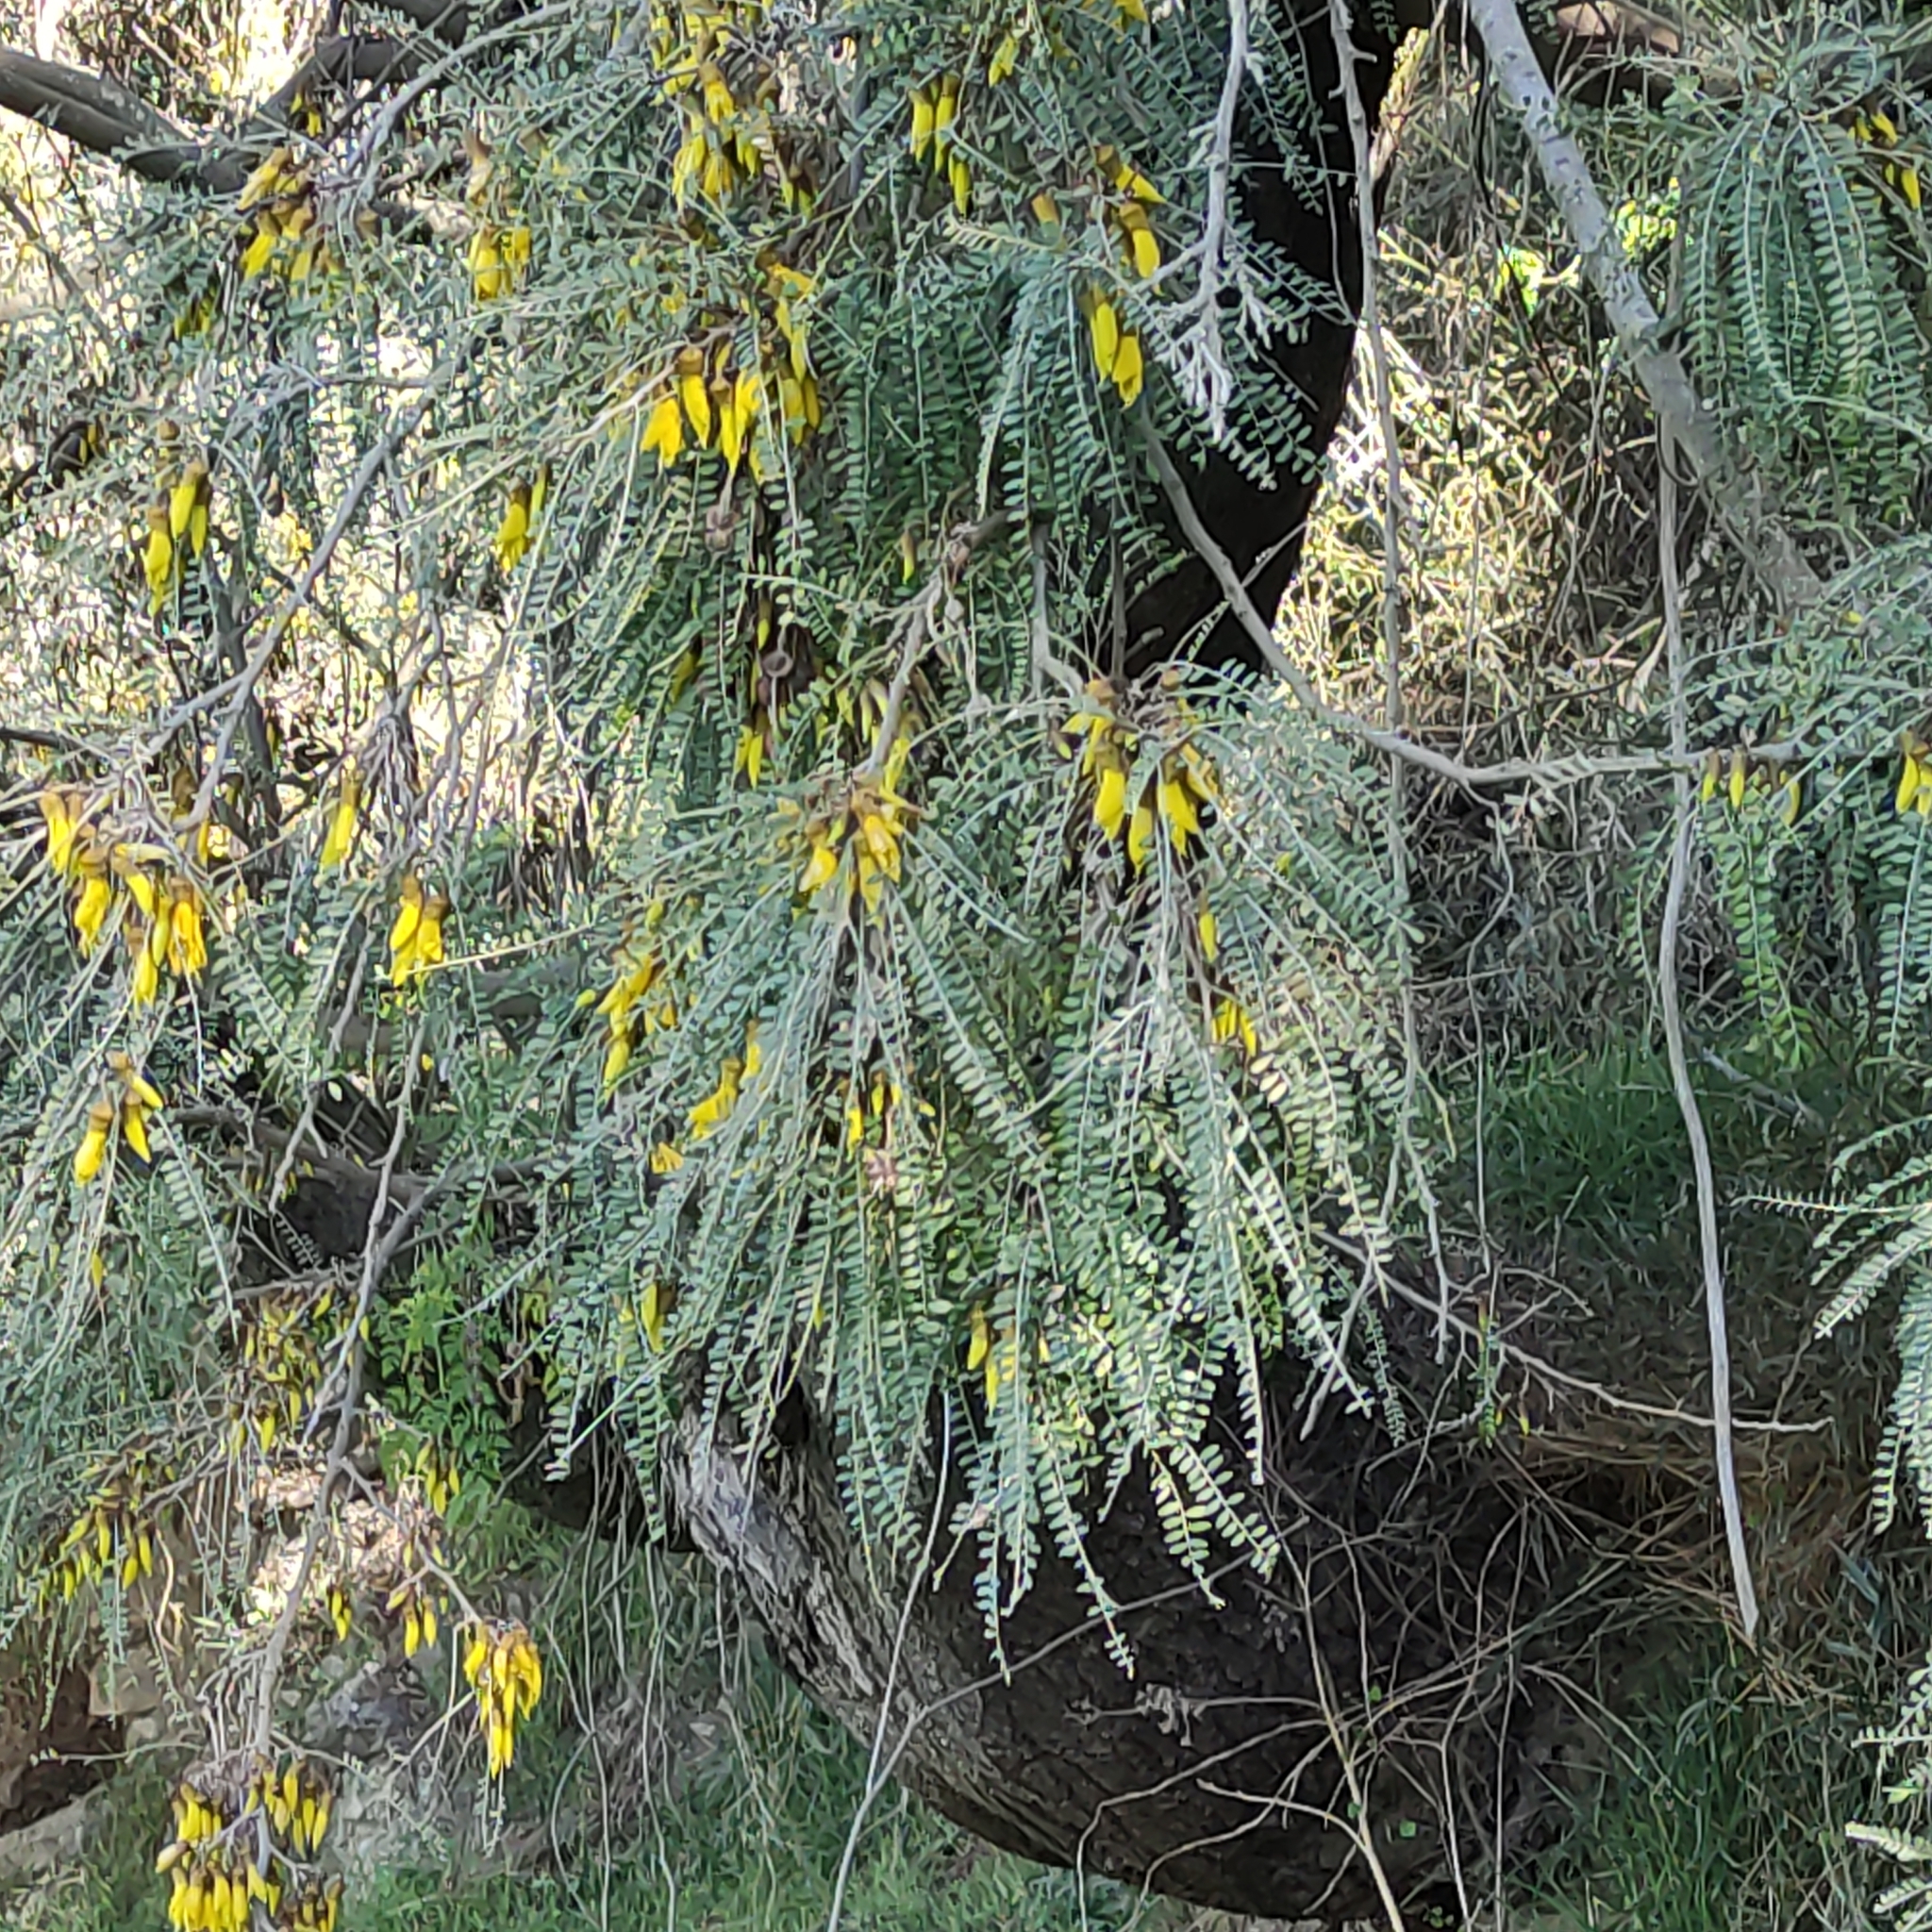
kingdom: Plantae
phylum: Tracheophyta
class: Magnoliopsida
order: Fabales
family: Fabaceae
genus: Sophora
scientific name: Sophora microphylla
